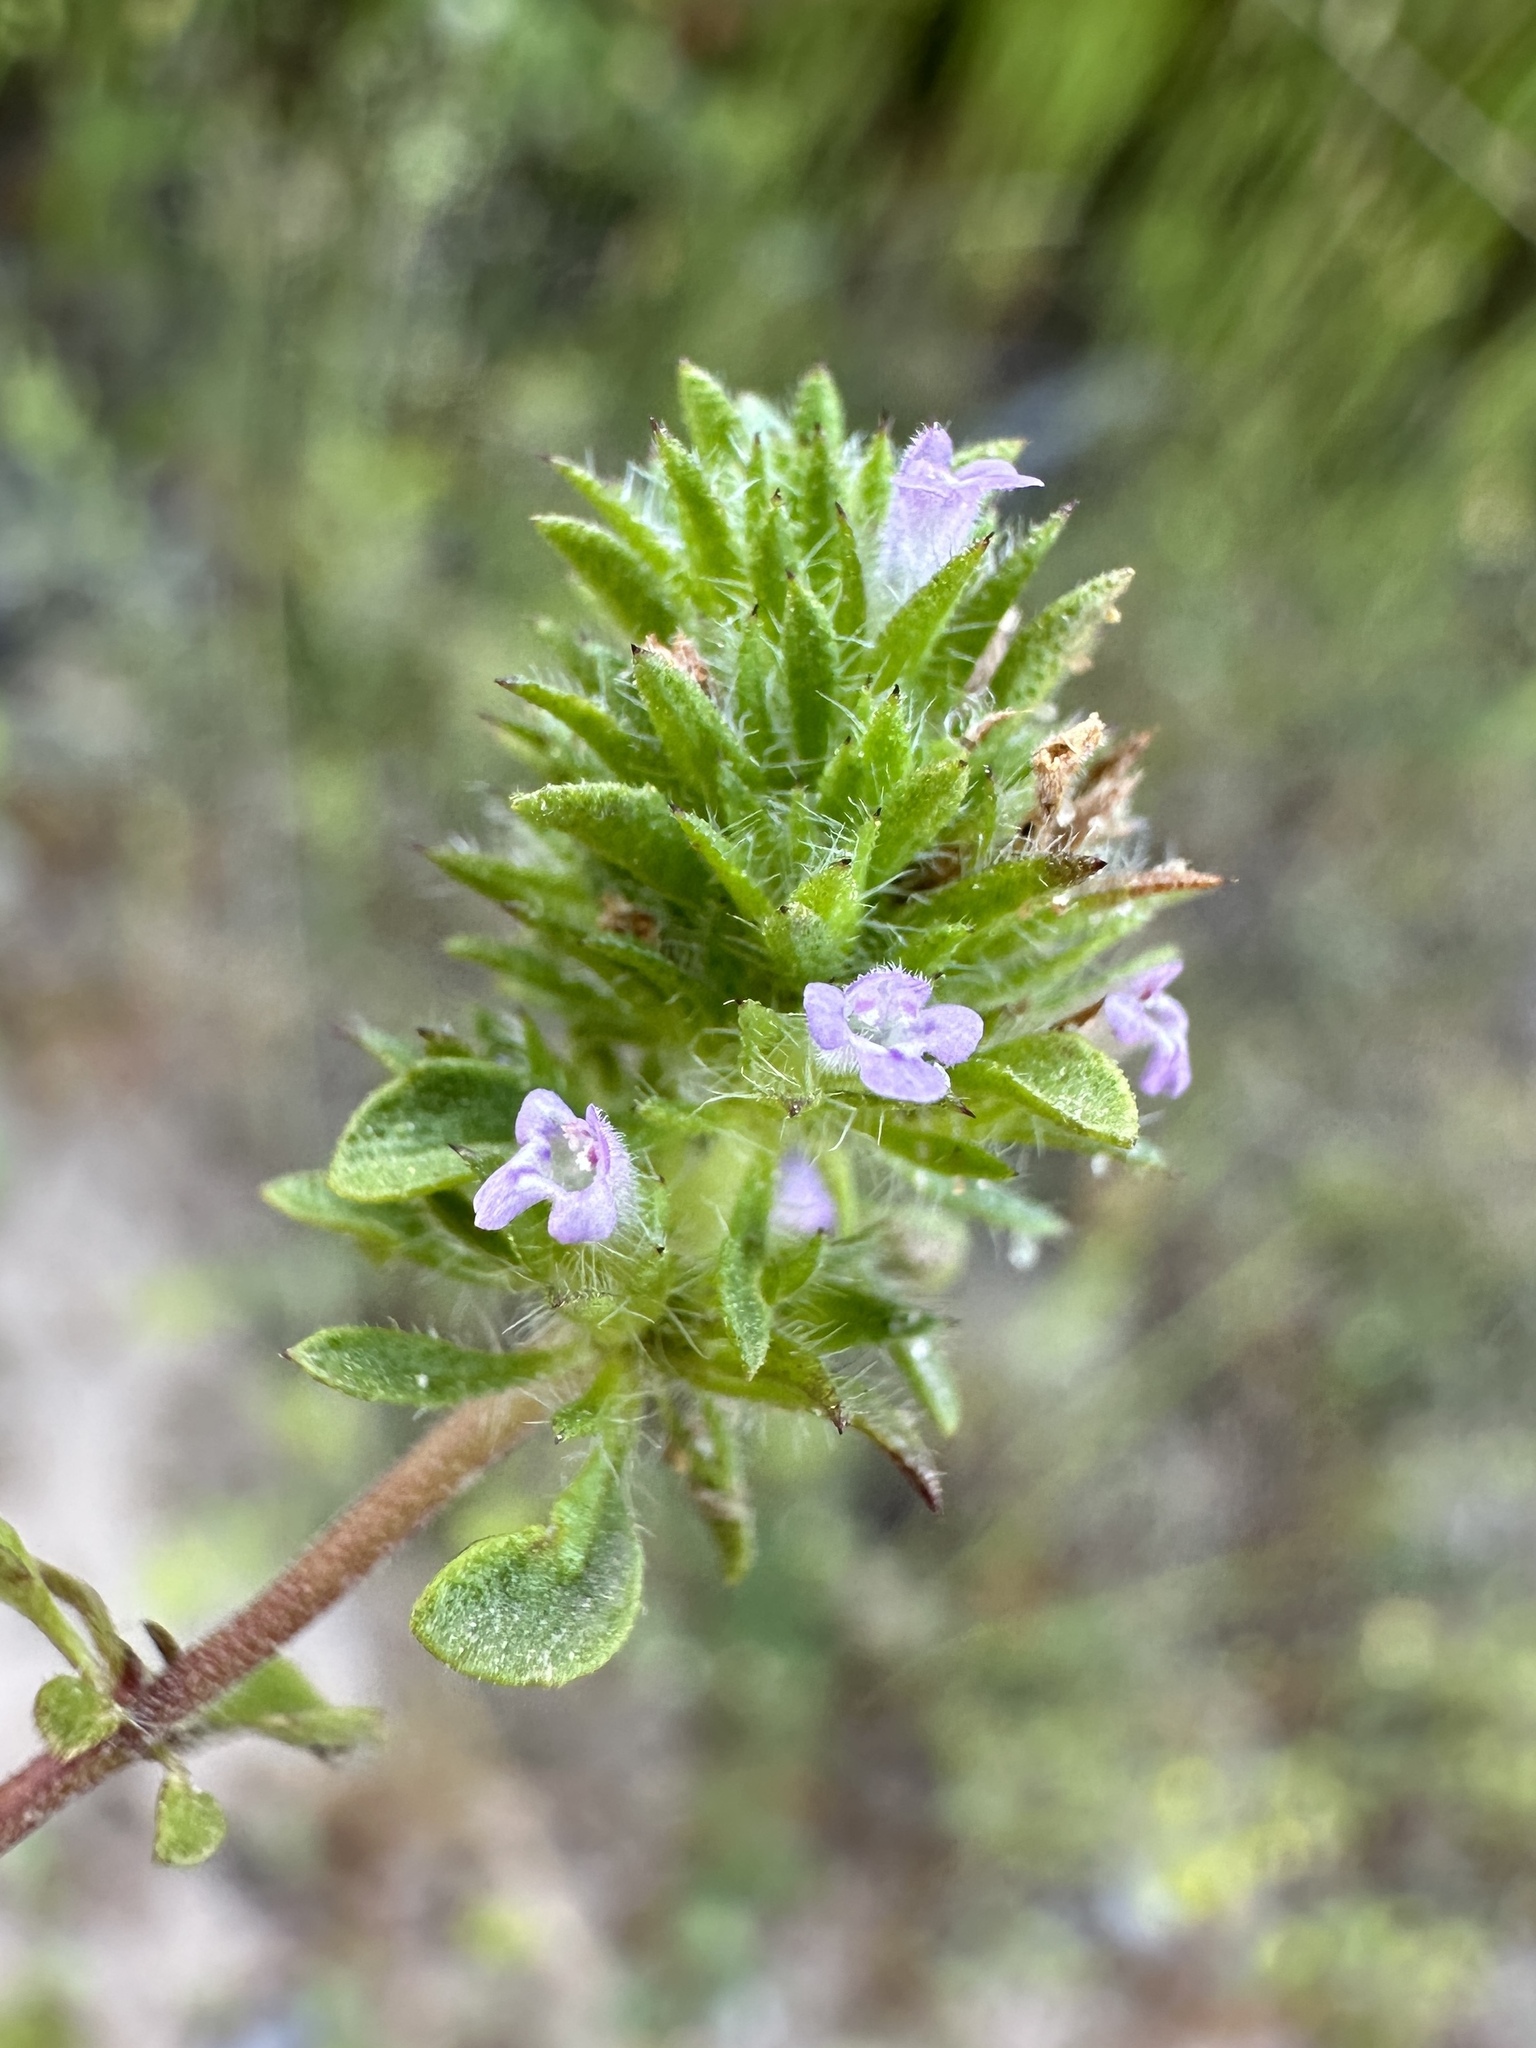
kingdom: Plantae
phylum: Tracheophyta
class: Magnoliopsida
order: Lamiales
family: Lamiaceae
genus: Pogogyne
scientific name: Pogogyne serpylloides
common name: Thymeleaf mesamint
